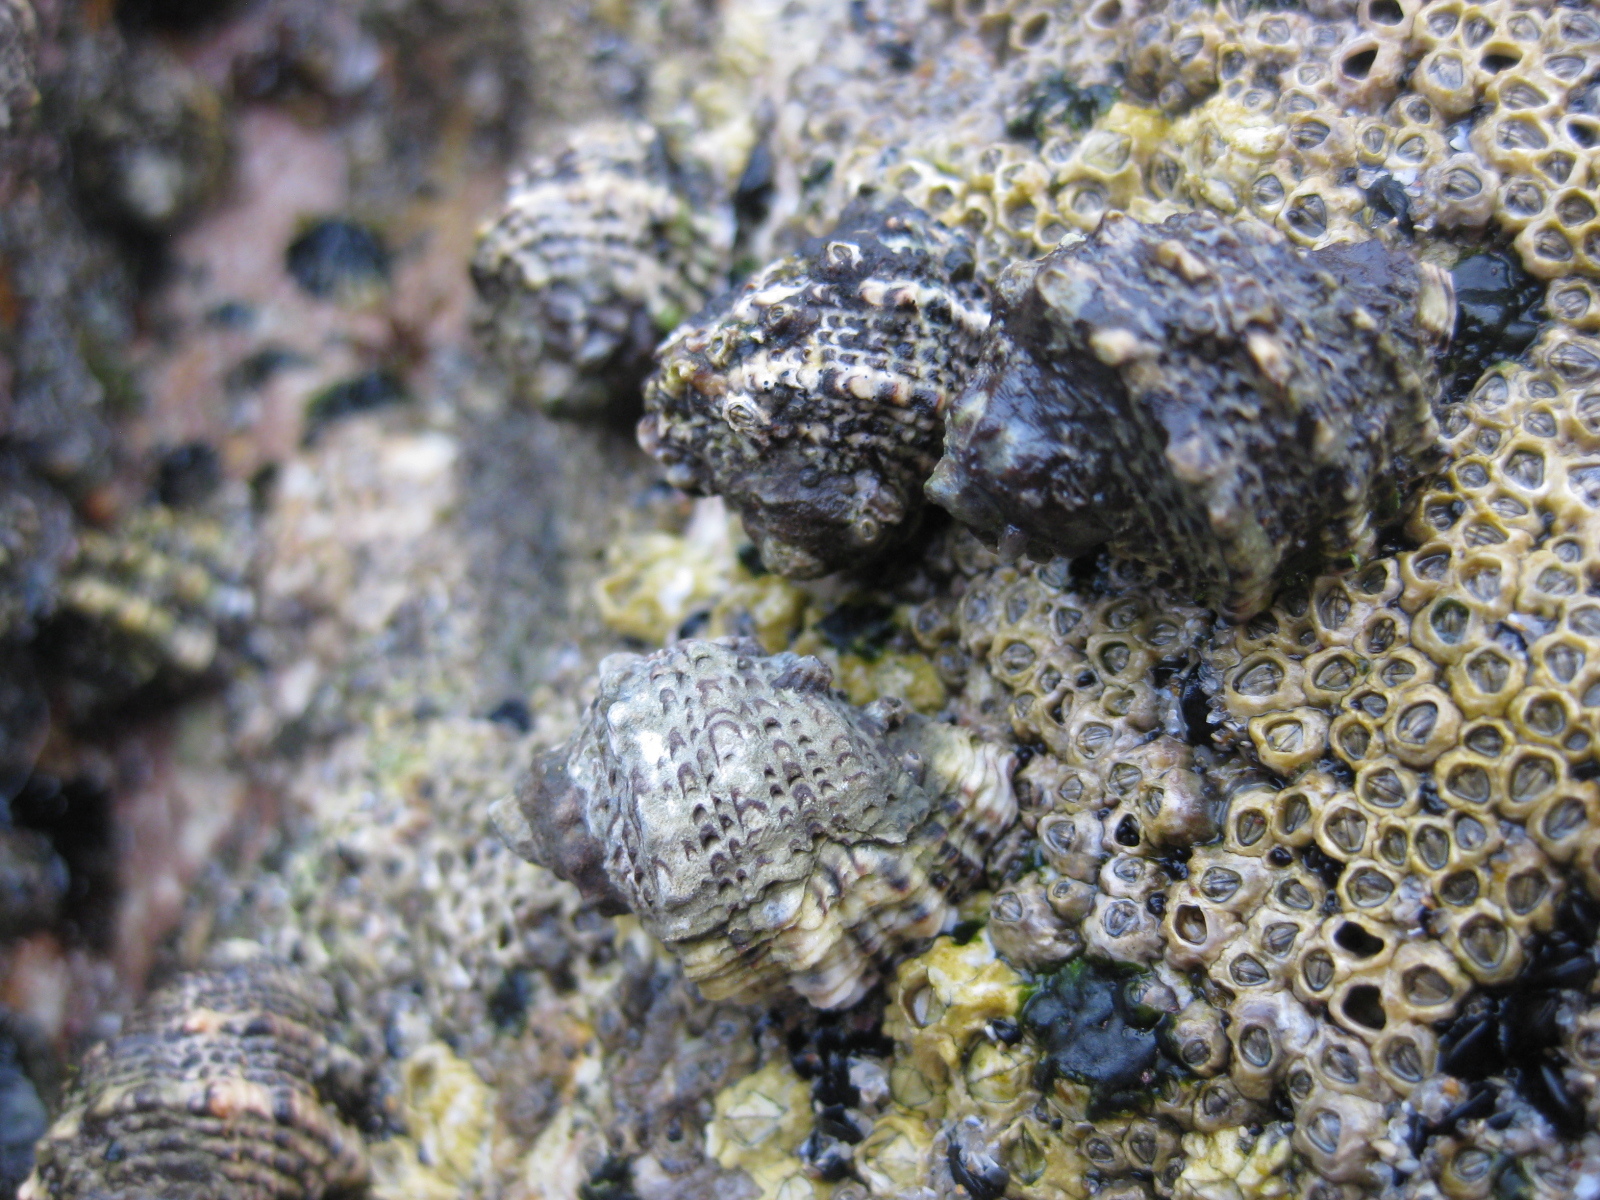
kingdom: Animalia
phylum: Mollusca
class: Gastropoda
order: Neogastropoda
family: Muricidae
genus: Haustrum
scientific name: Haustrum scobina
